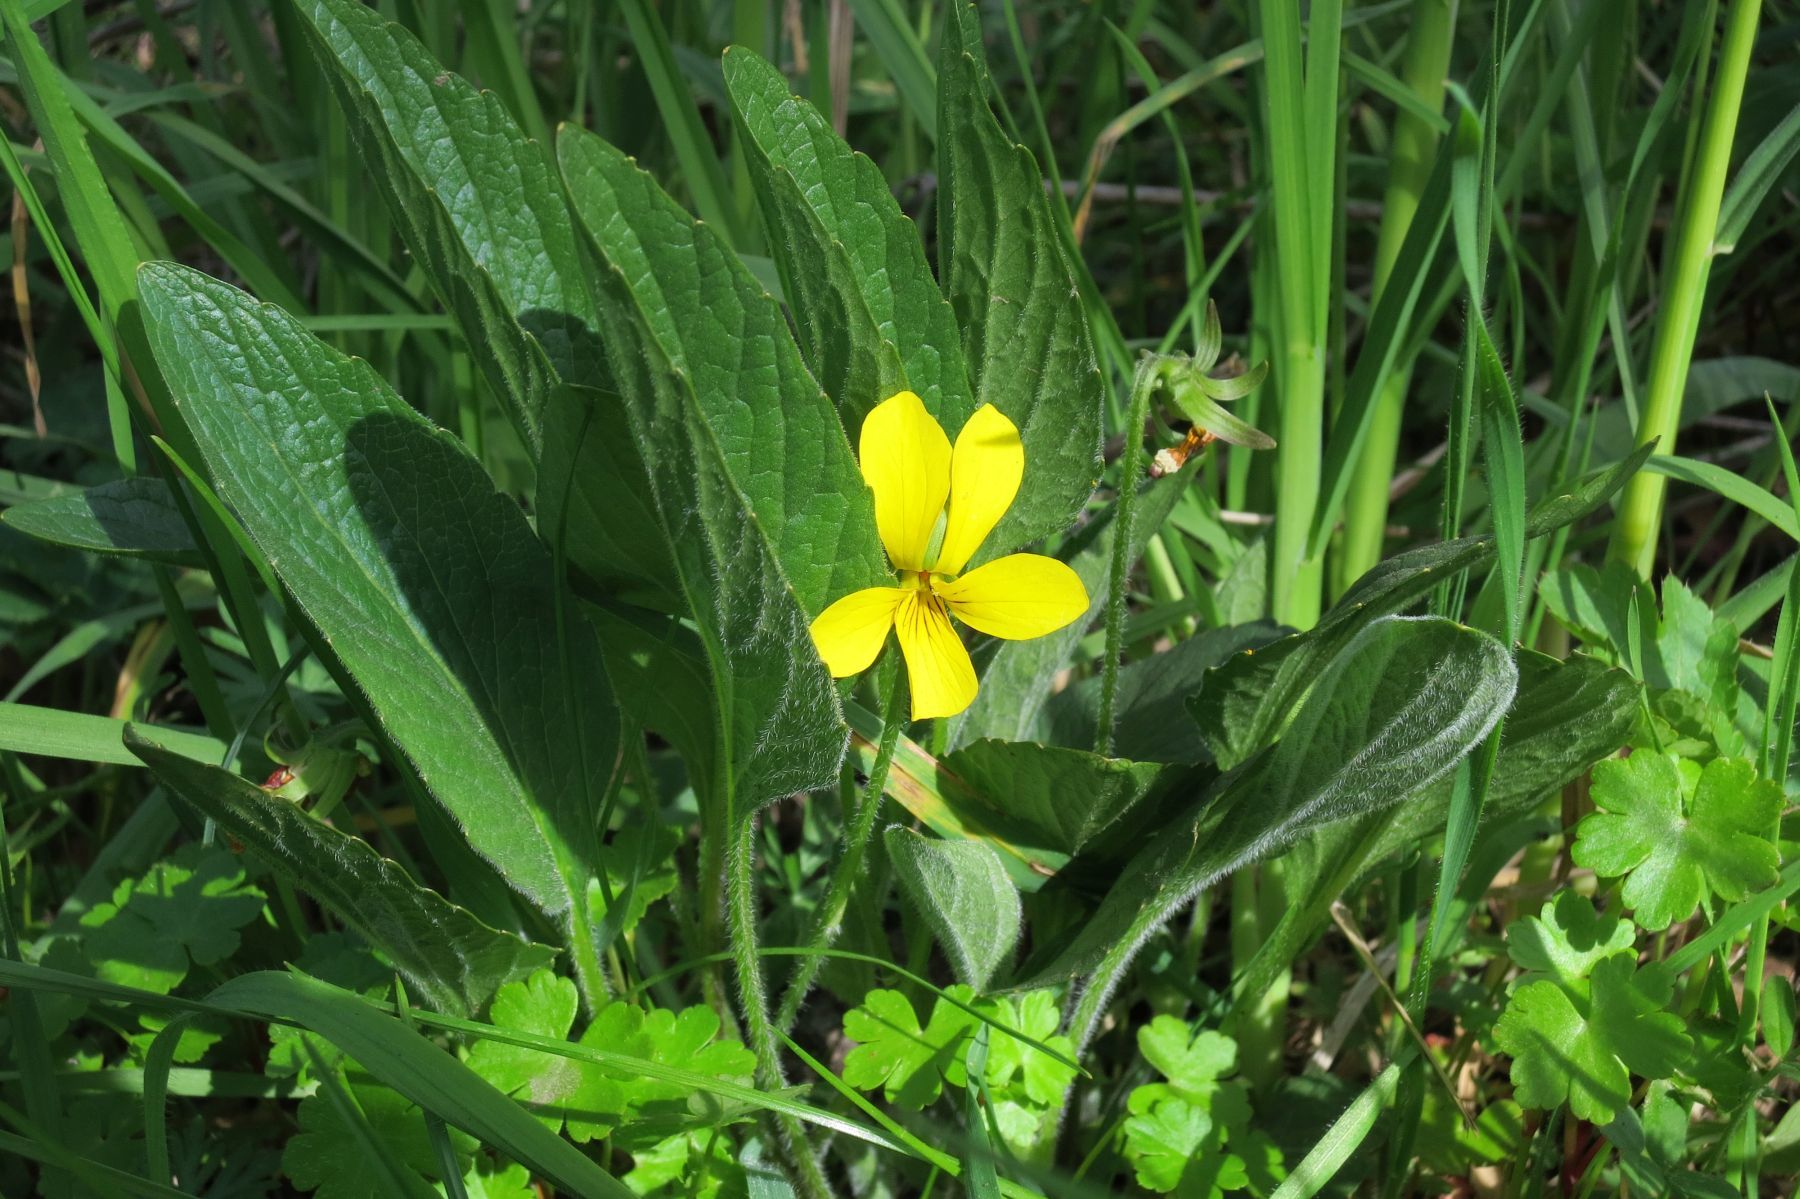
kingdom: Plantae
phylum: Tracheophyta
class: Magnoliopsida
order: Malpighiales
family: Violaceae
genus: Viola
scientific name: Viola praemorsa
